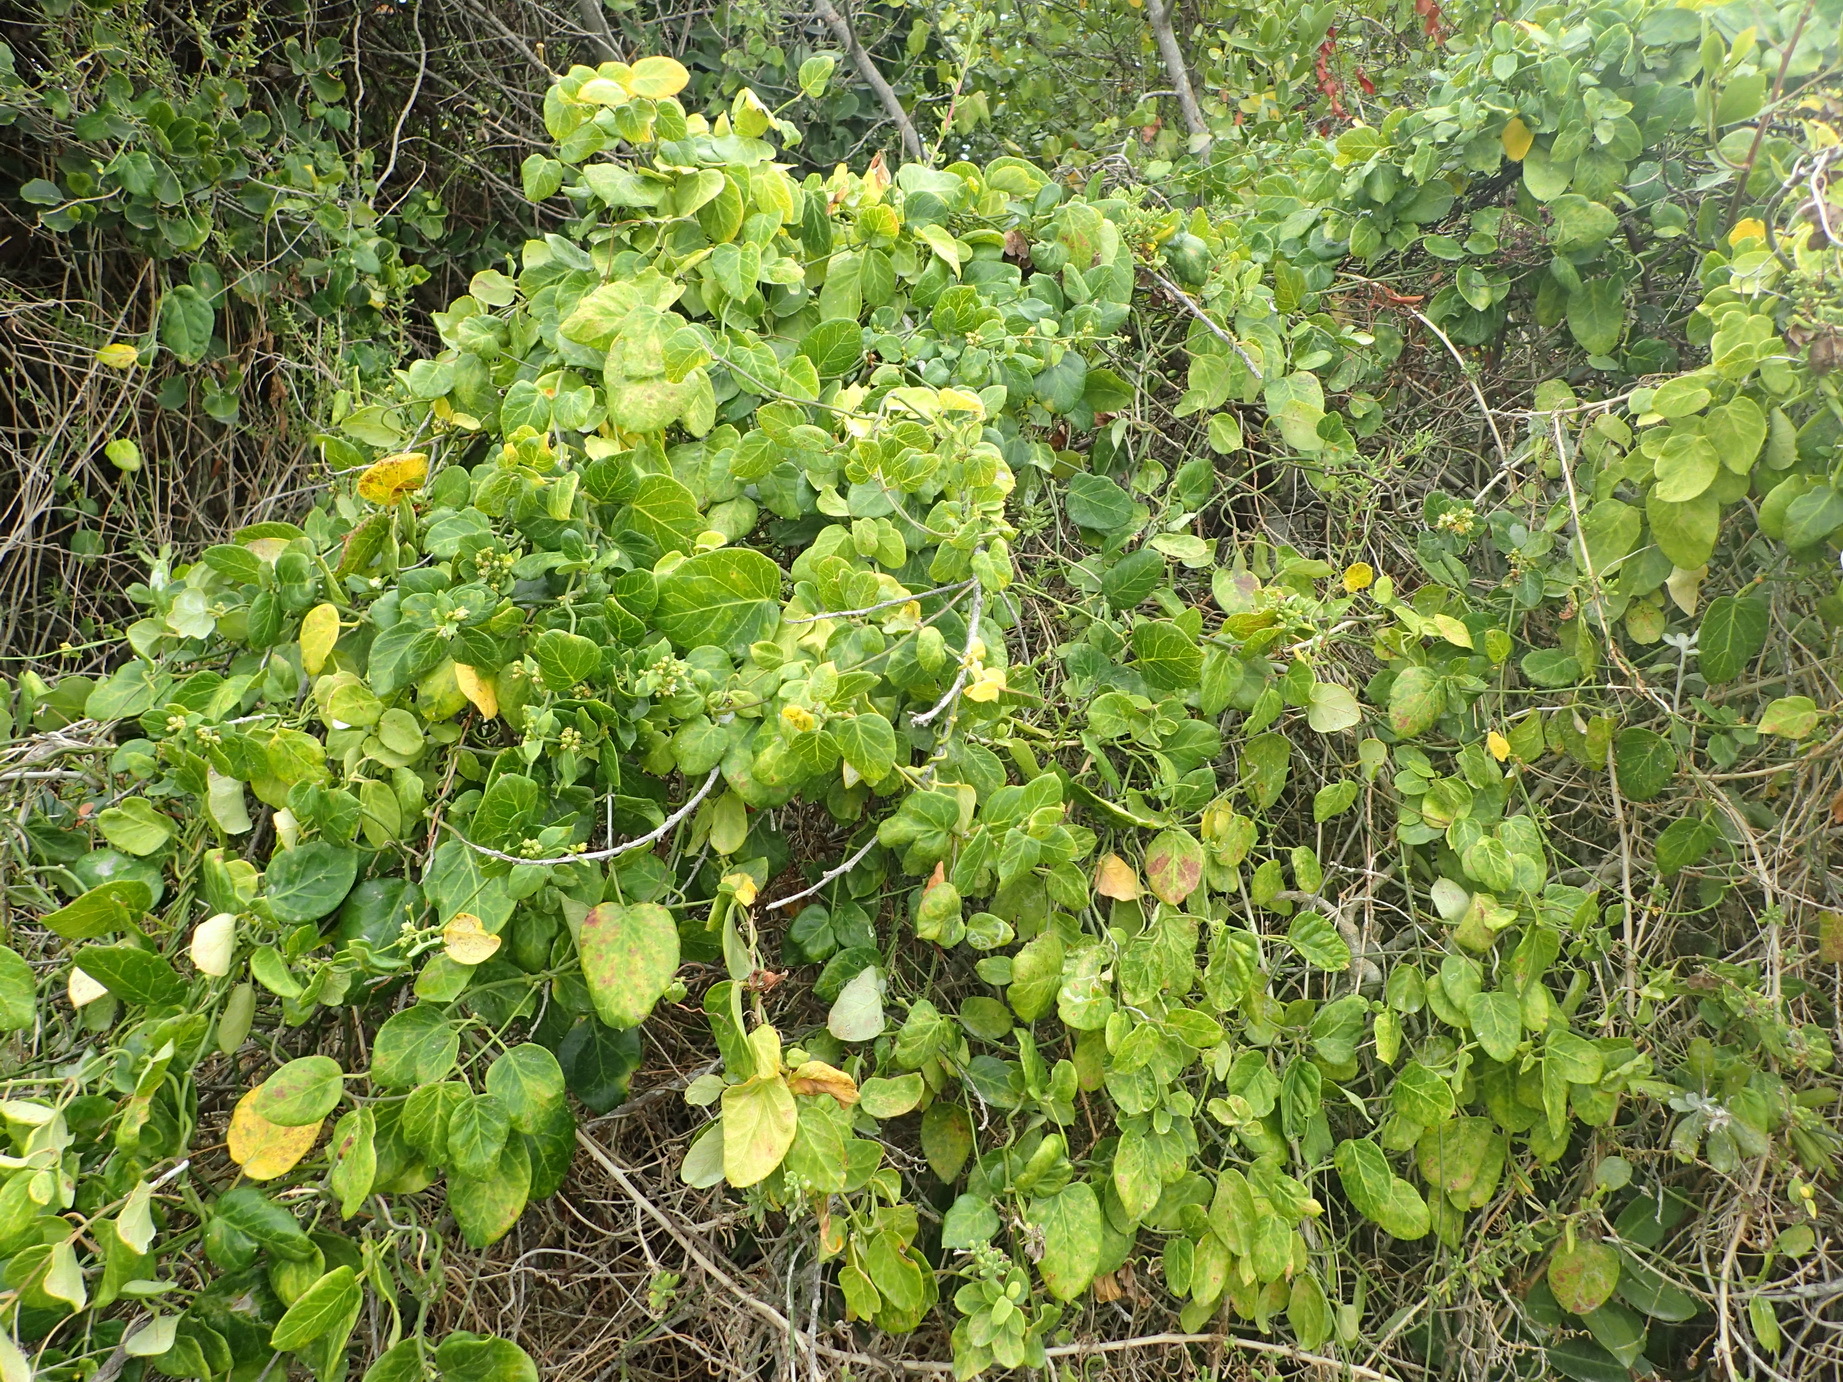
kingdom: Plantae
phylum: Tracheophyta
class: Magnoliopsida
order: Gentianales
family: Apocynaceae
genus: Cynanchum
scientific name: Cynanchum obtusifolium
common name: Monkey-rope
